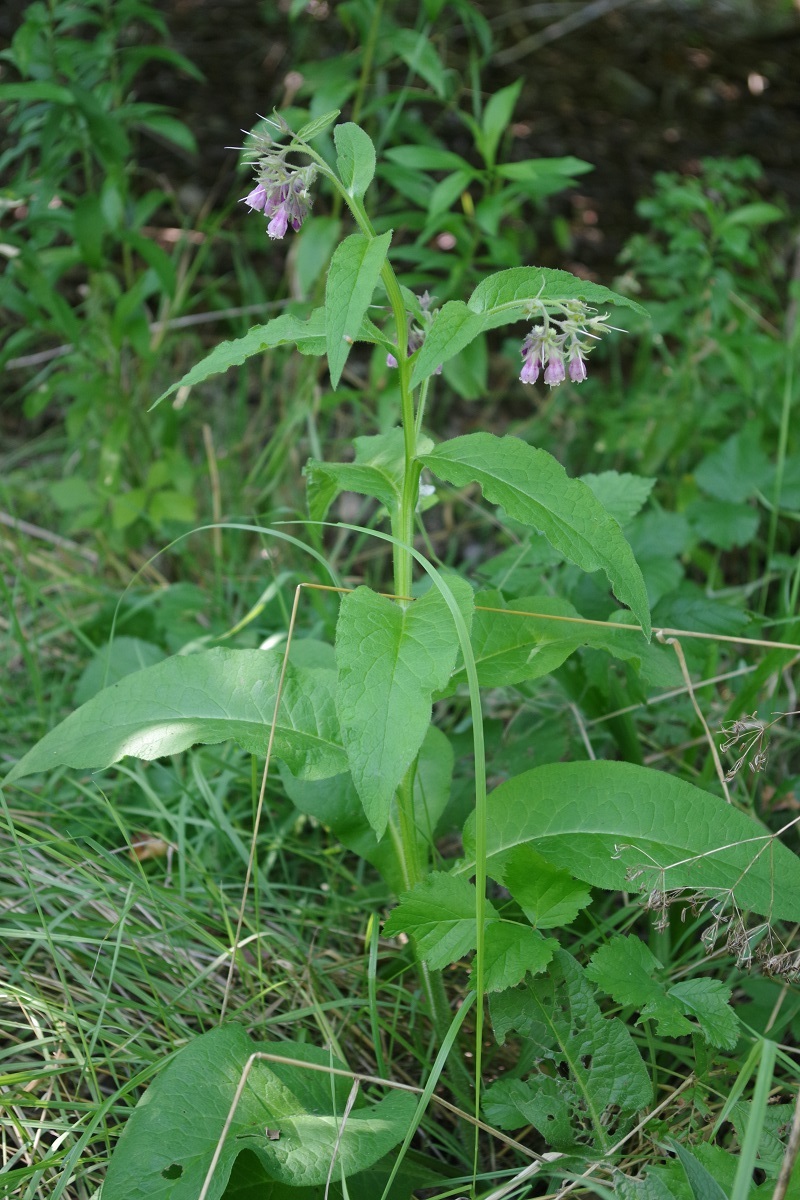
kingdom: Plantae
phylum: Tracheophyta
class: Magnoliopsida
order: Boraginales
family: Boraginaceae
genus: Symphytum
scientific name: Symphytum officinale
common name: Common comfrey
